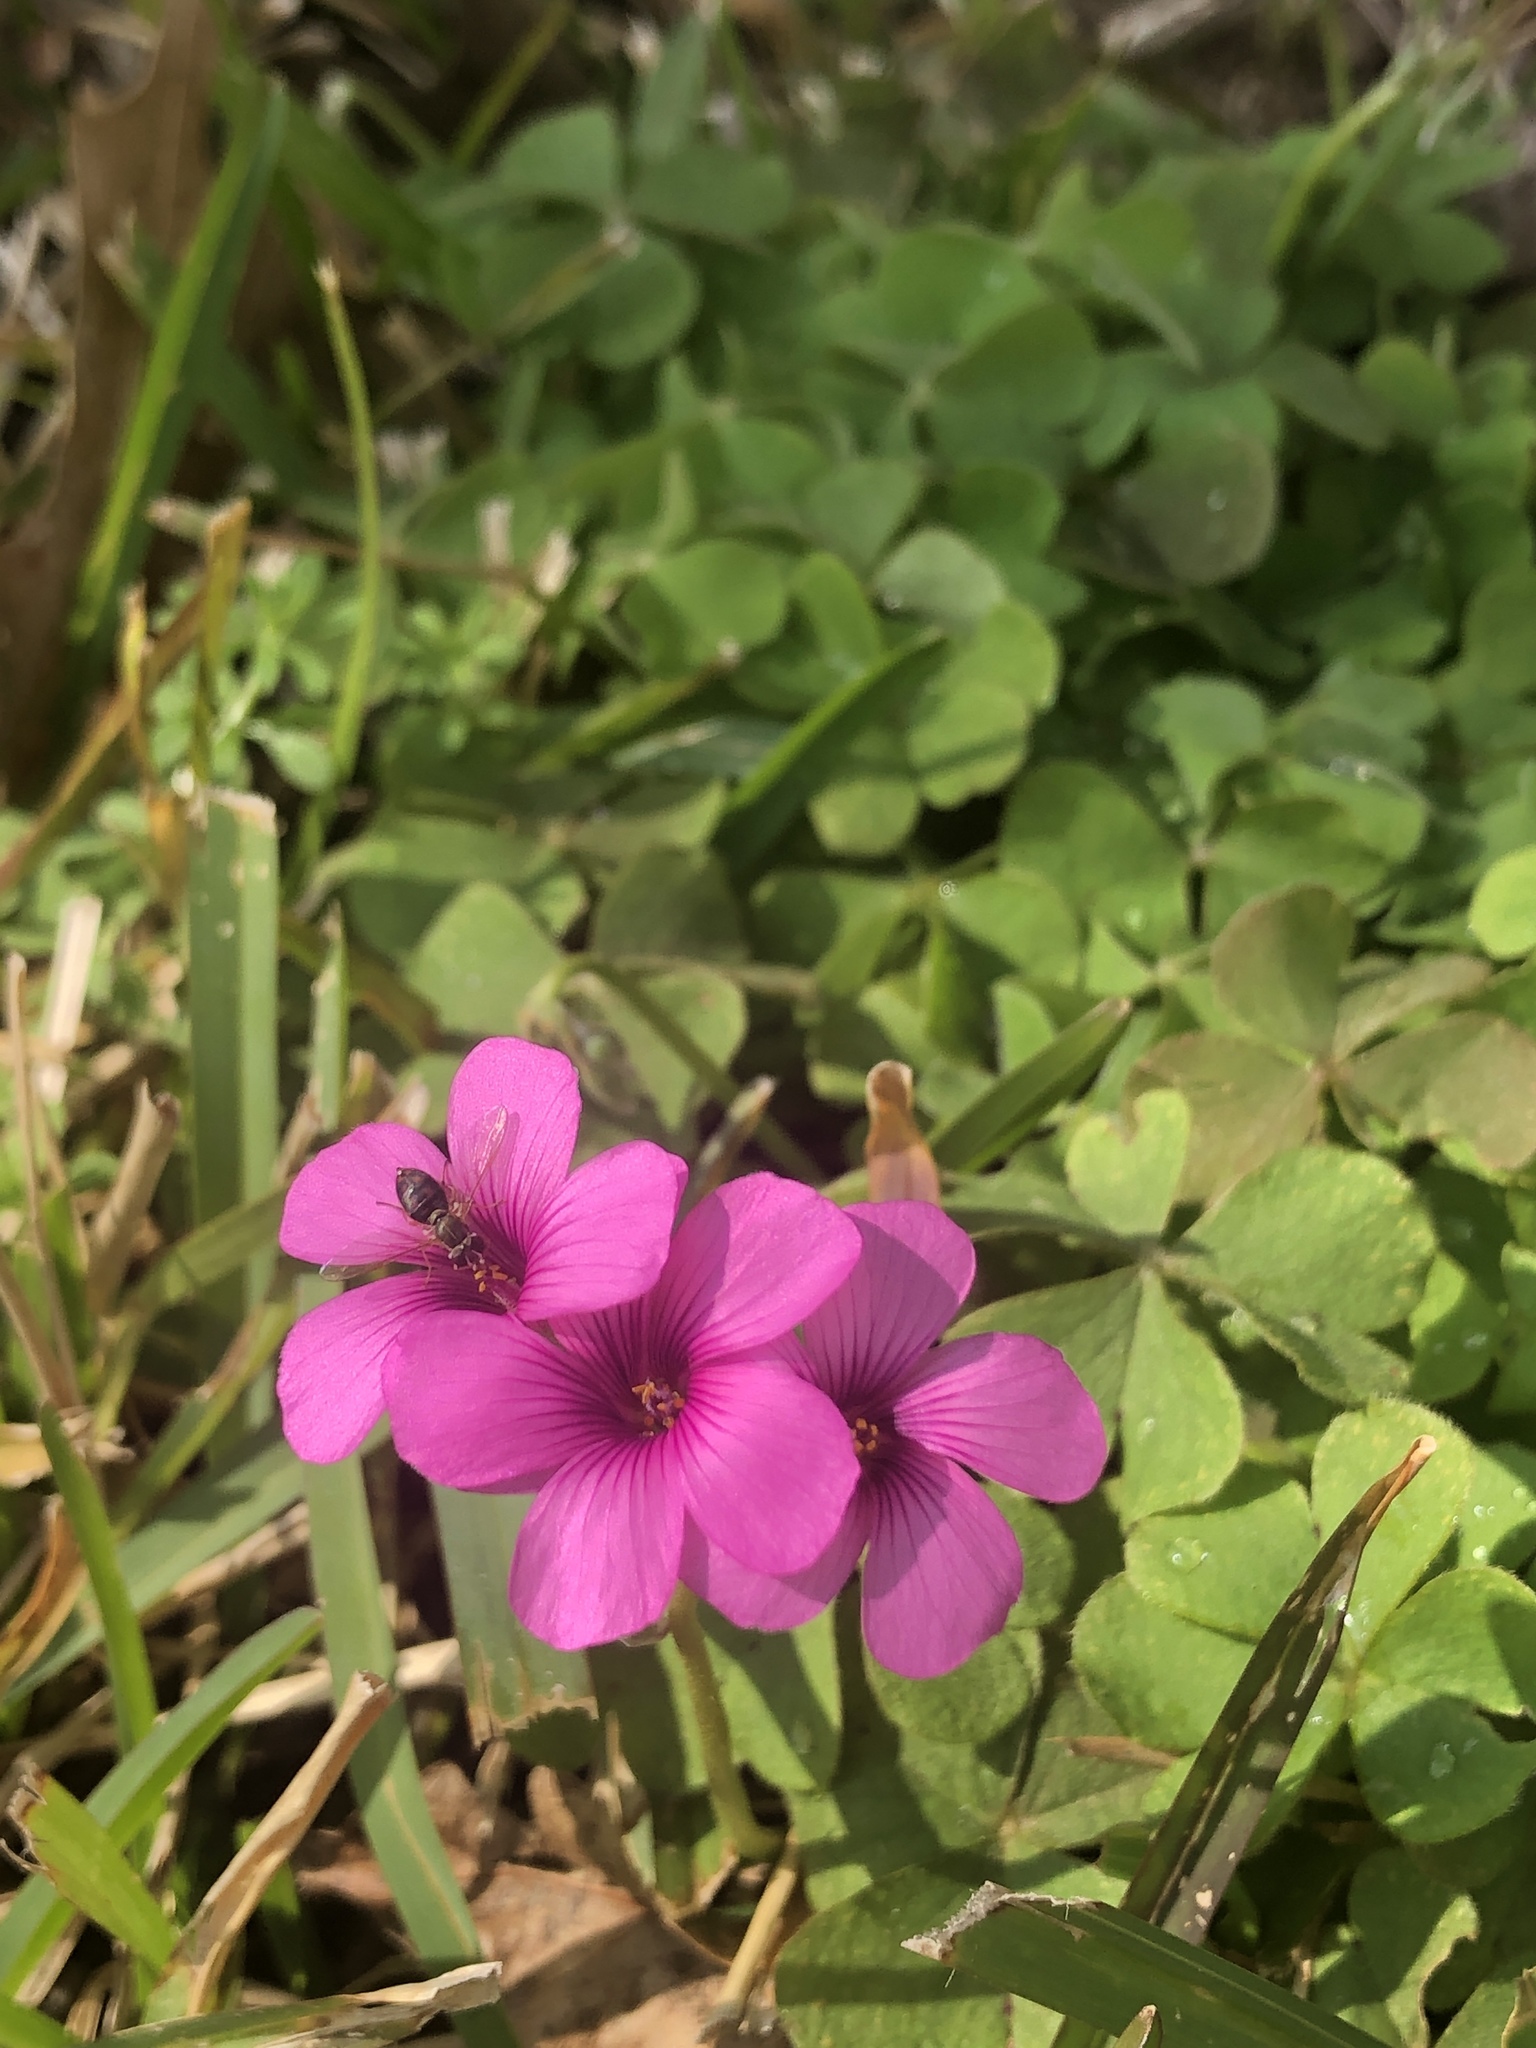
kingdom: Animalia
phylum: Arthropoda
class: Insecta
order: Diptera
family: Syrphidae
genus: Toxomerus
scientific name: Toxomerus marginatus
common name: Syrphid fly
